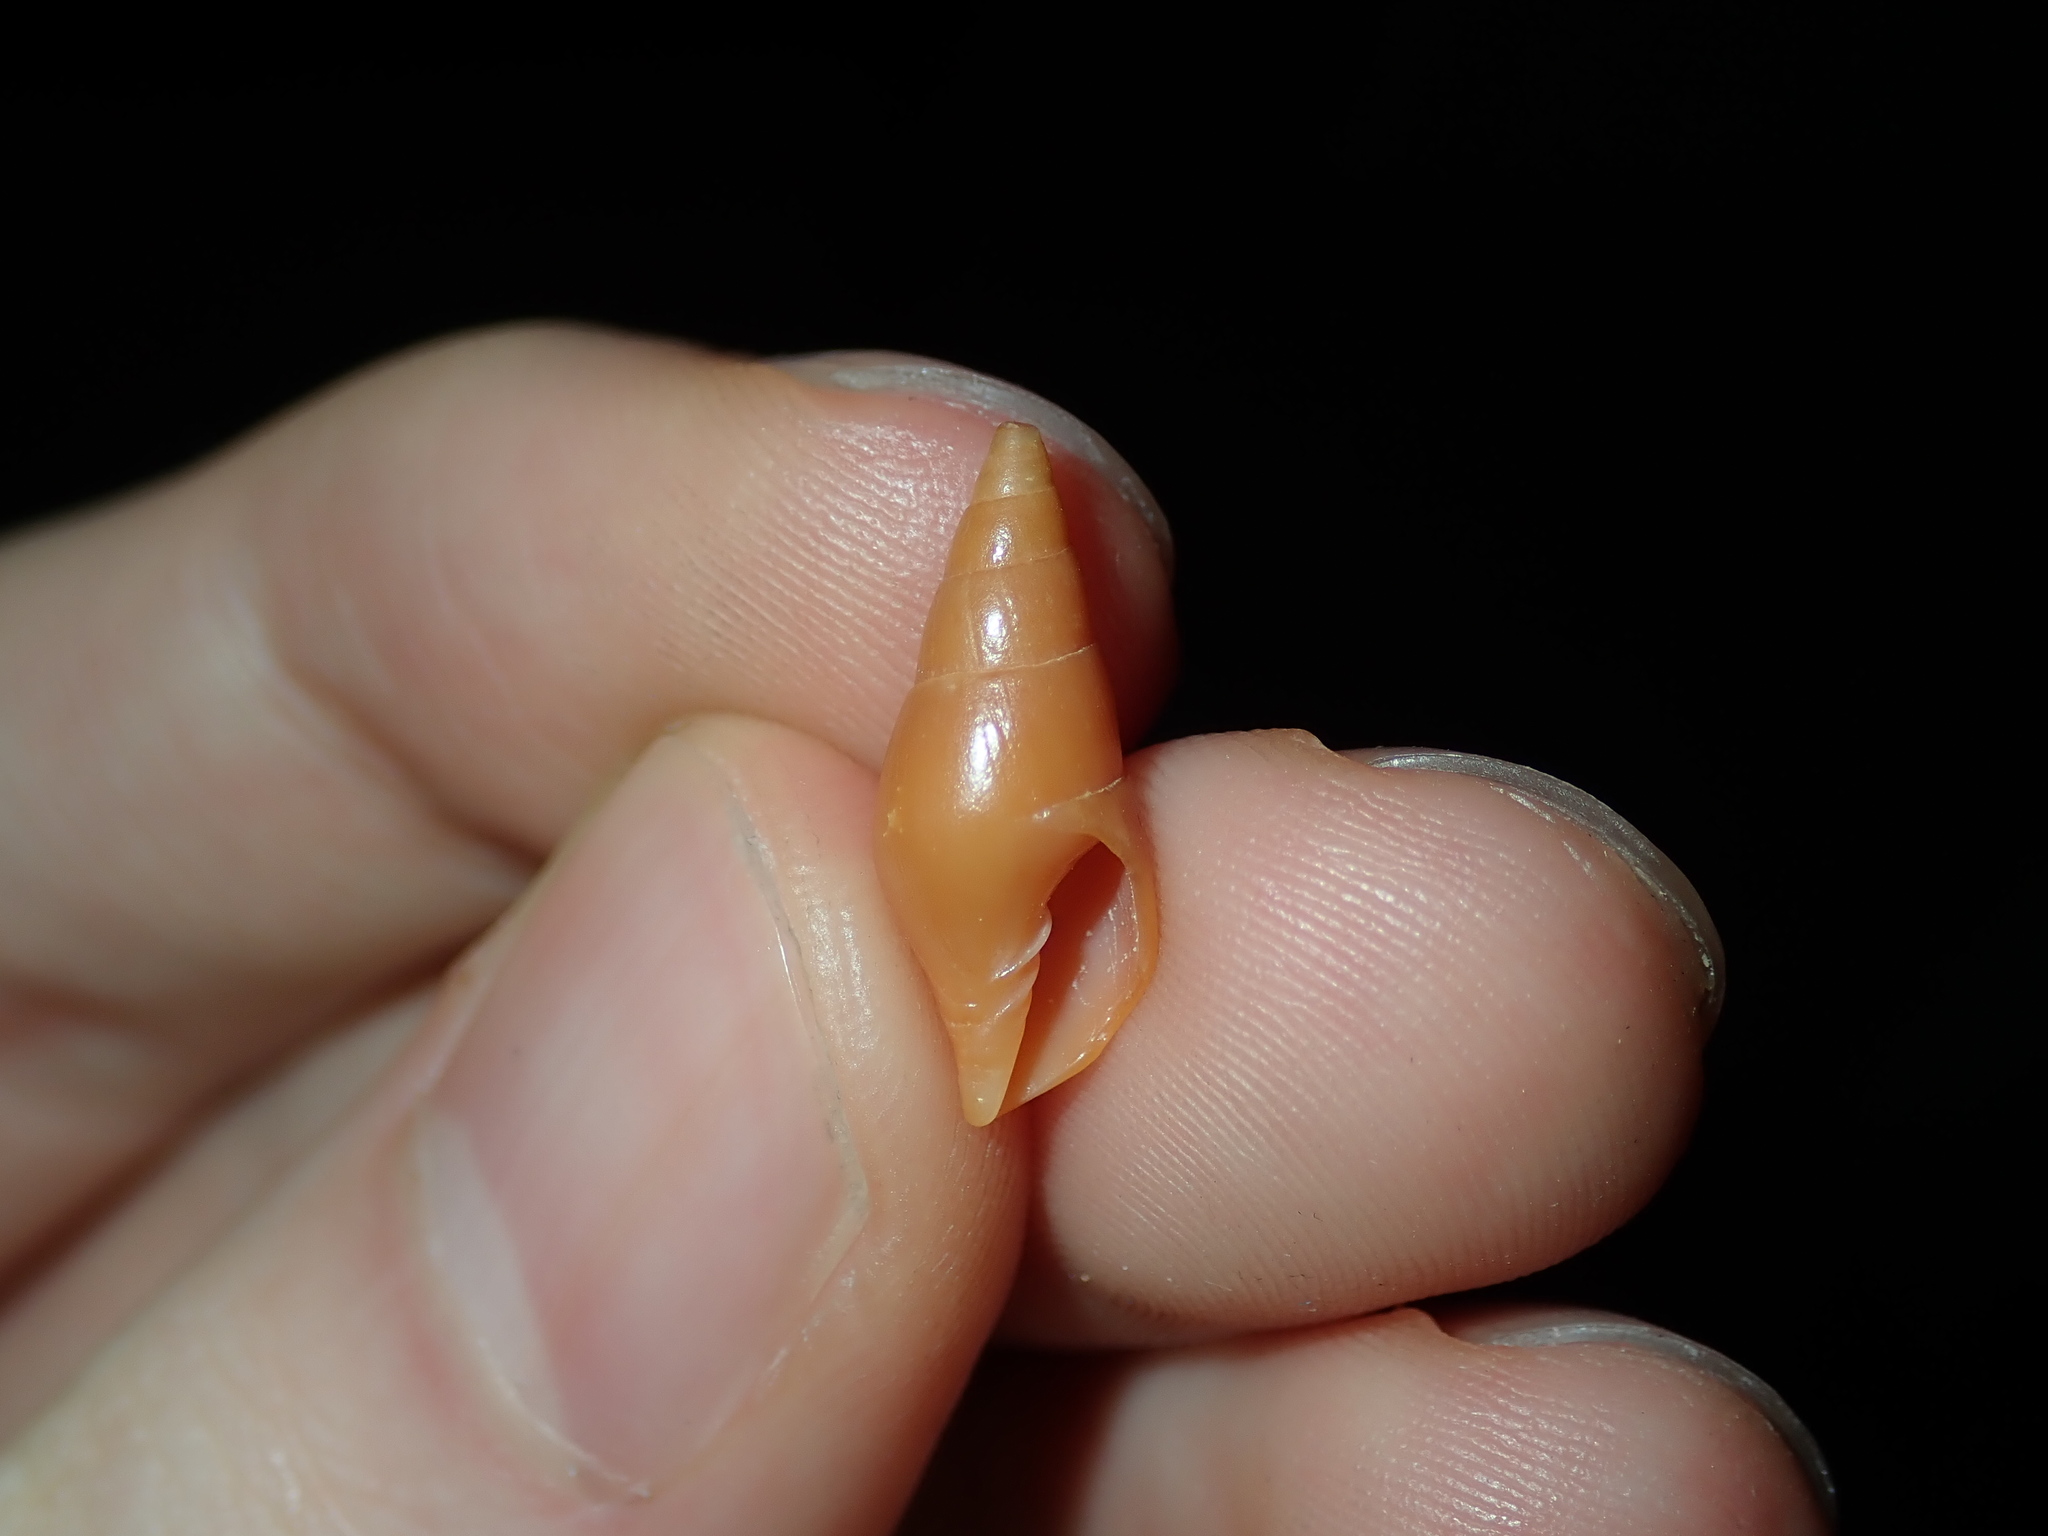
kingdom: Animalia
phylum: Mollusca
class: Gastropoda
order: Neogastropoda
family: Mitridae
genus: Isara
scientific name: Isara badia
